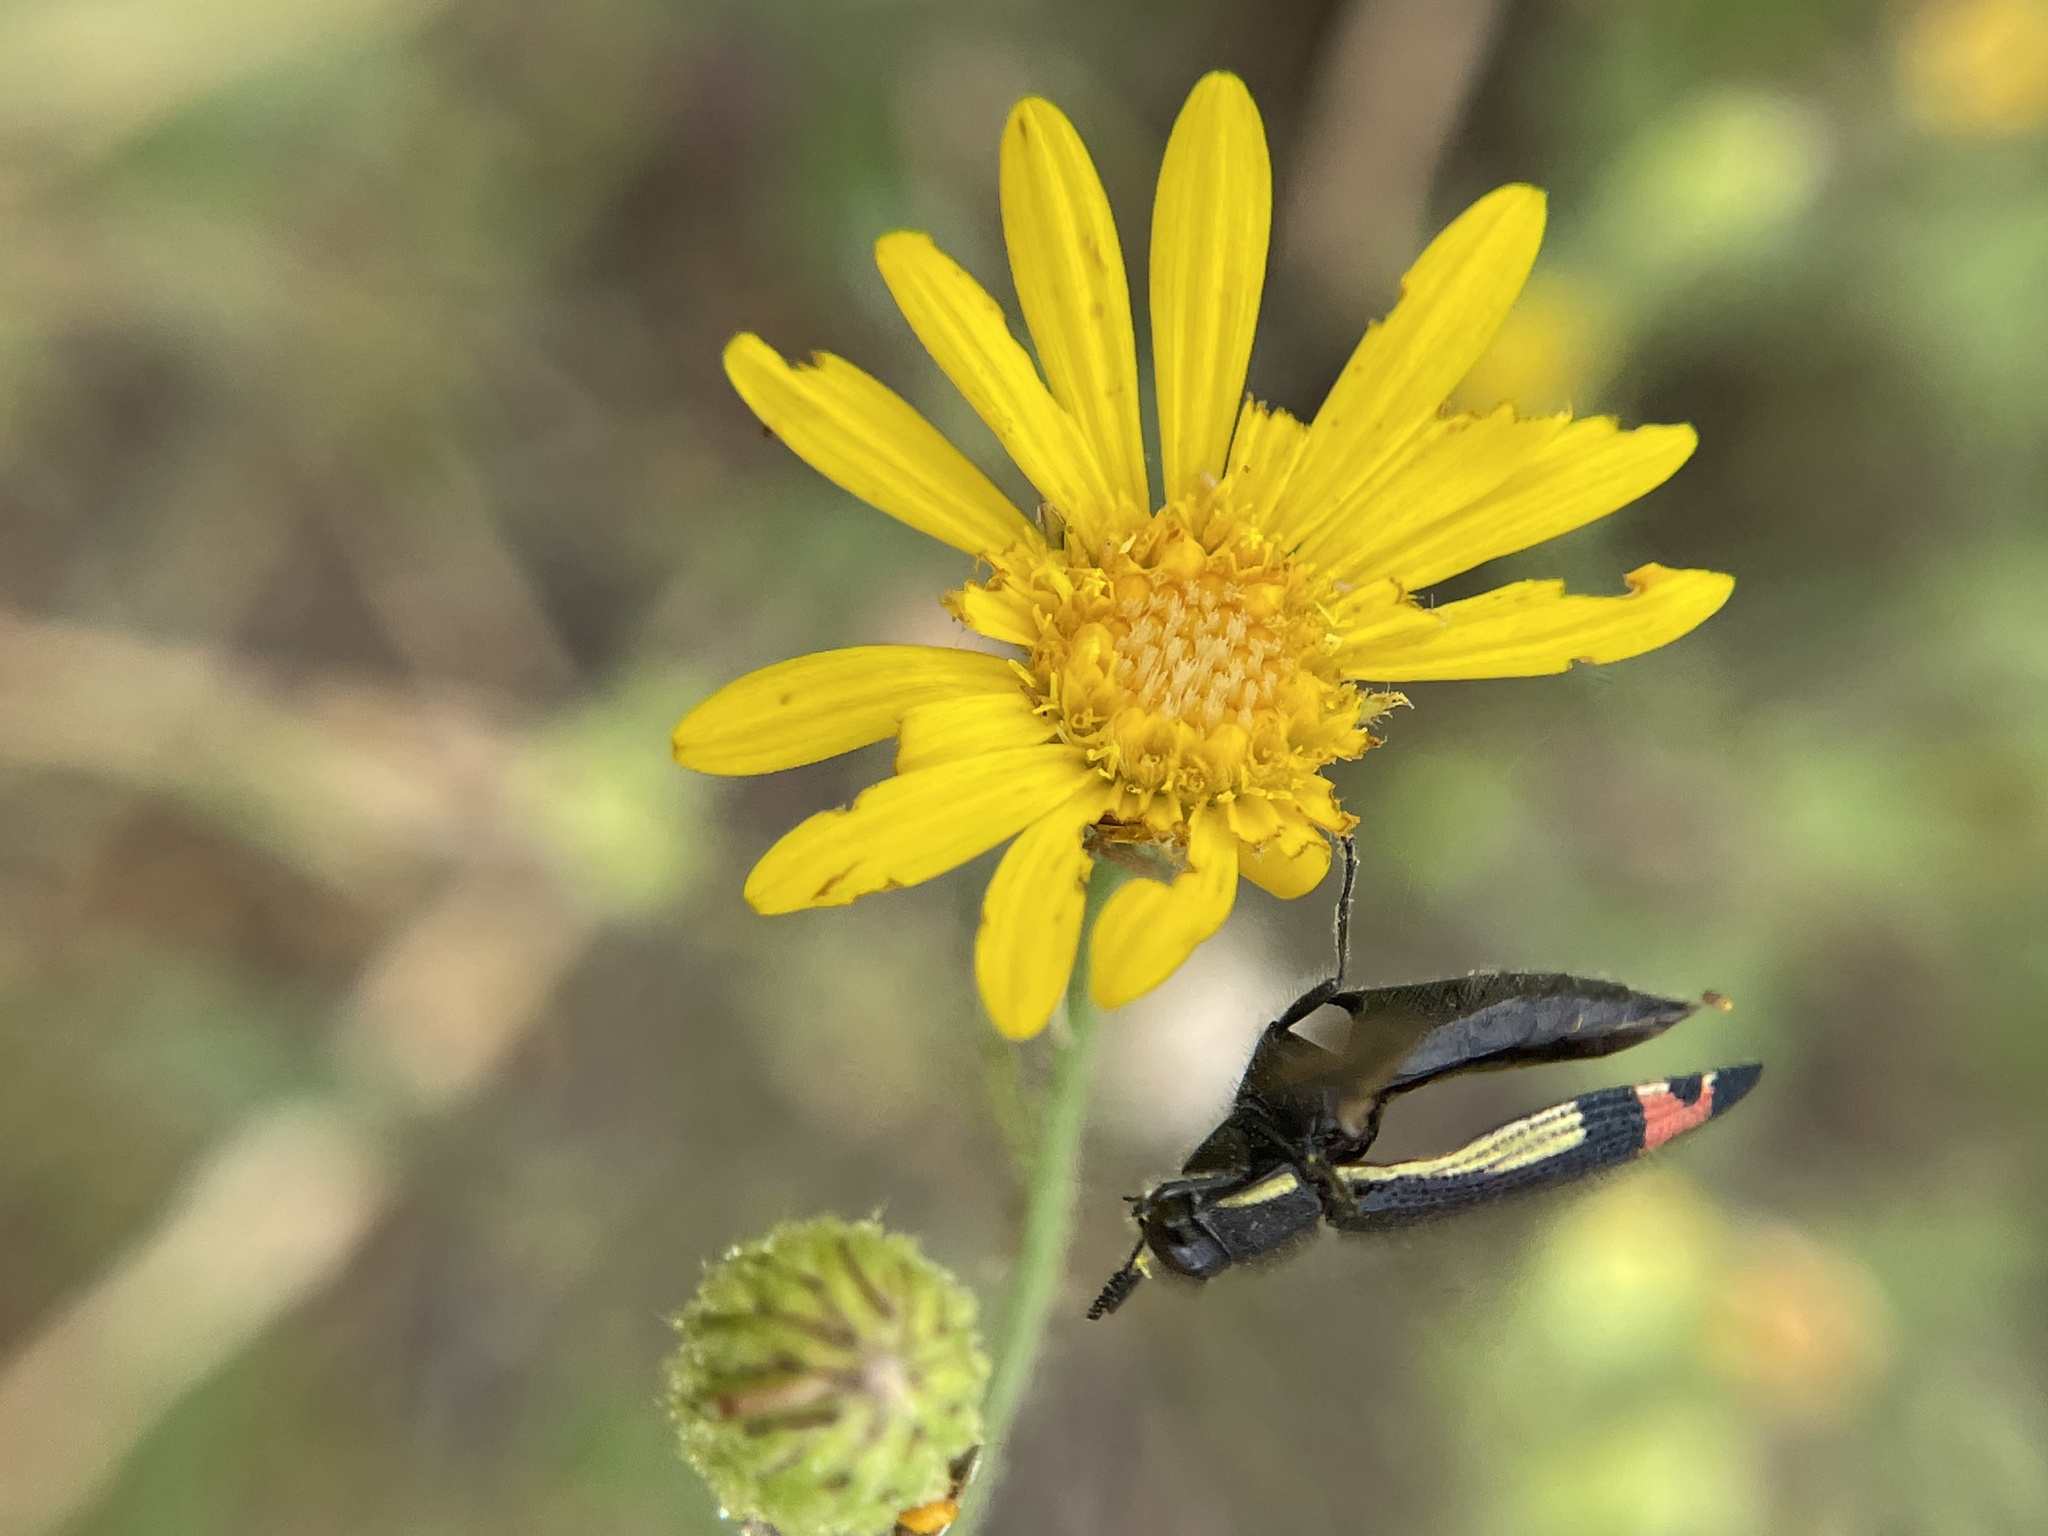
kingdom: Animalia
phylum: Arthropoda
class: Insecta
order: Coleoptera
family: Buprestidae
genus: Acmaeodera
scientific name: Acmaeodera flavomarginata
